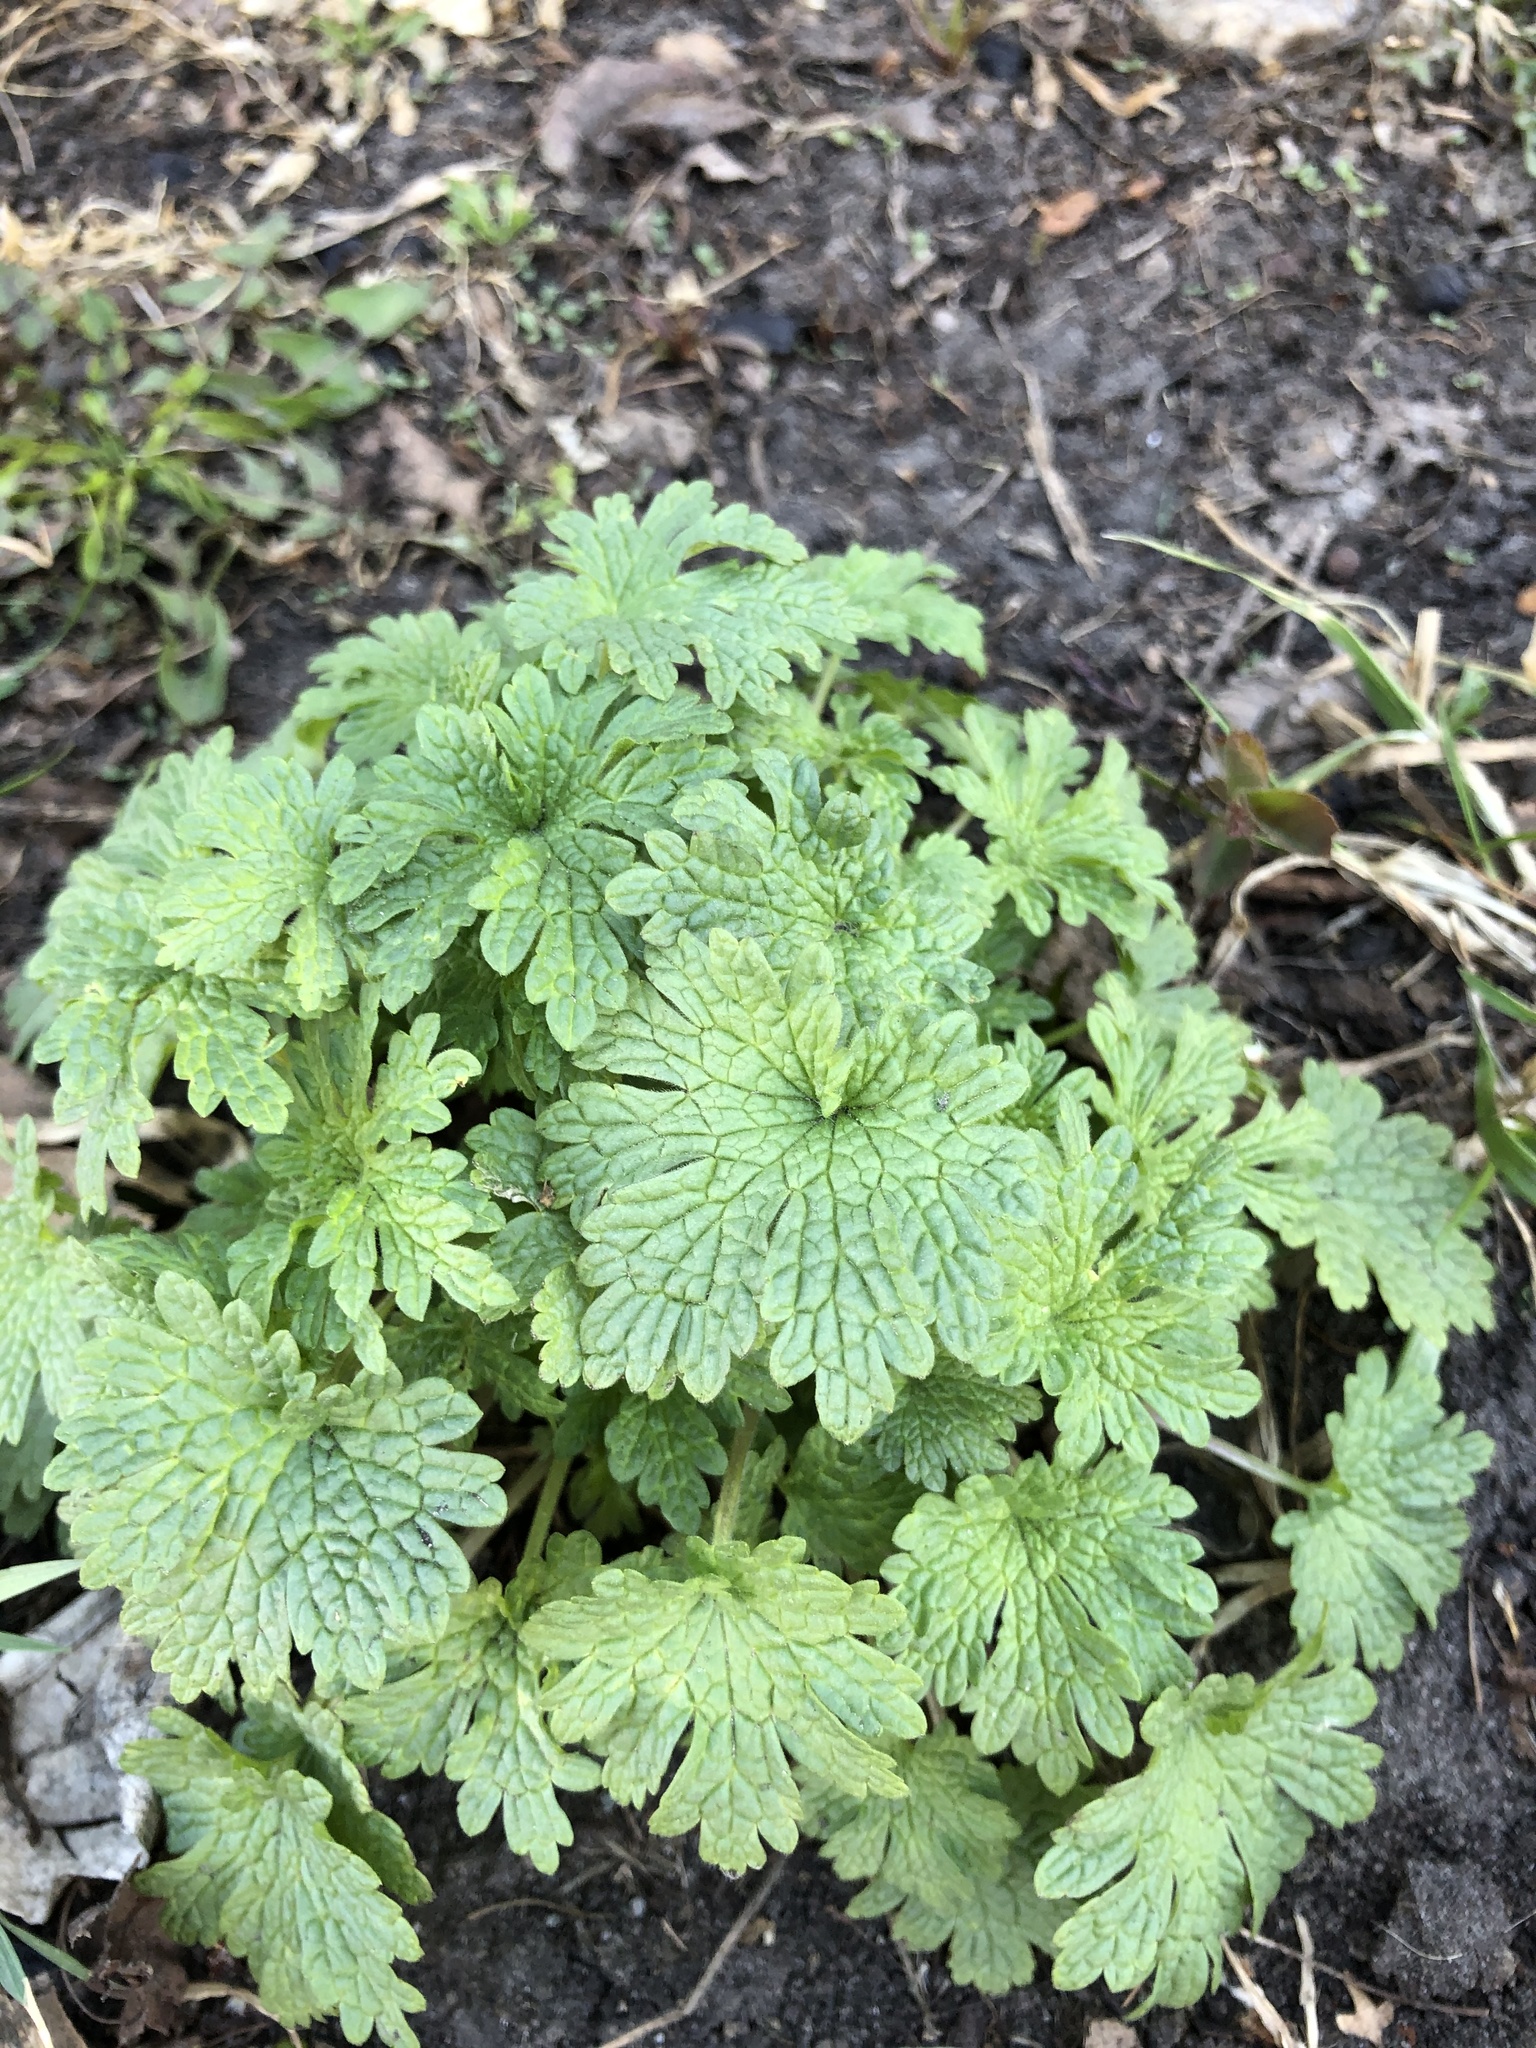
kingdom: Plantae
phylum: Tracheophyta
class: Magnoliopsida
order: Lamiales
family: Lamiaceae
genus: Leonurus
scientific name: Leonurus quinquelobatus
